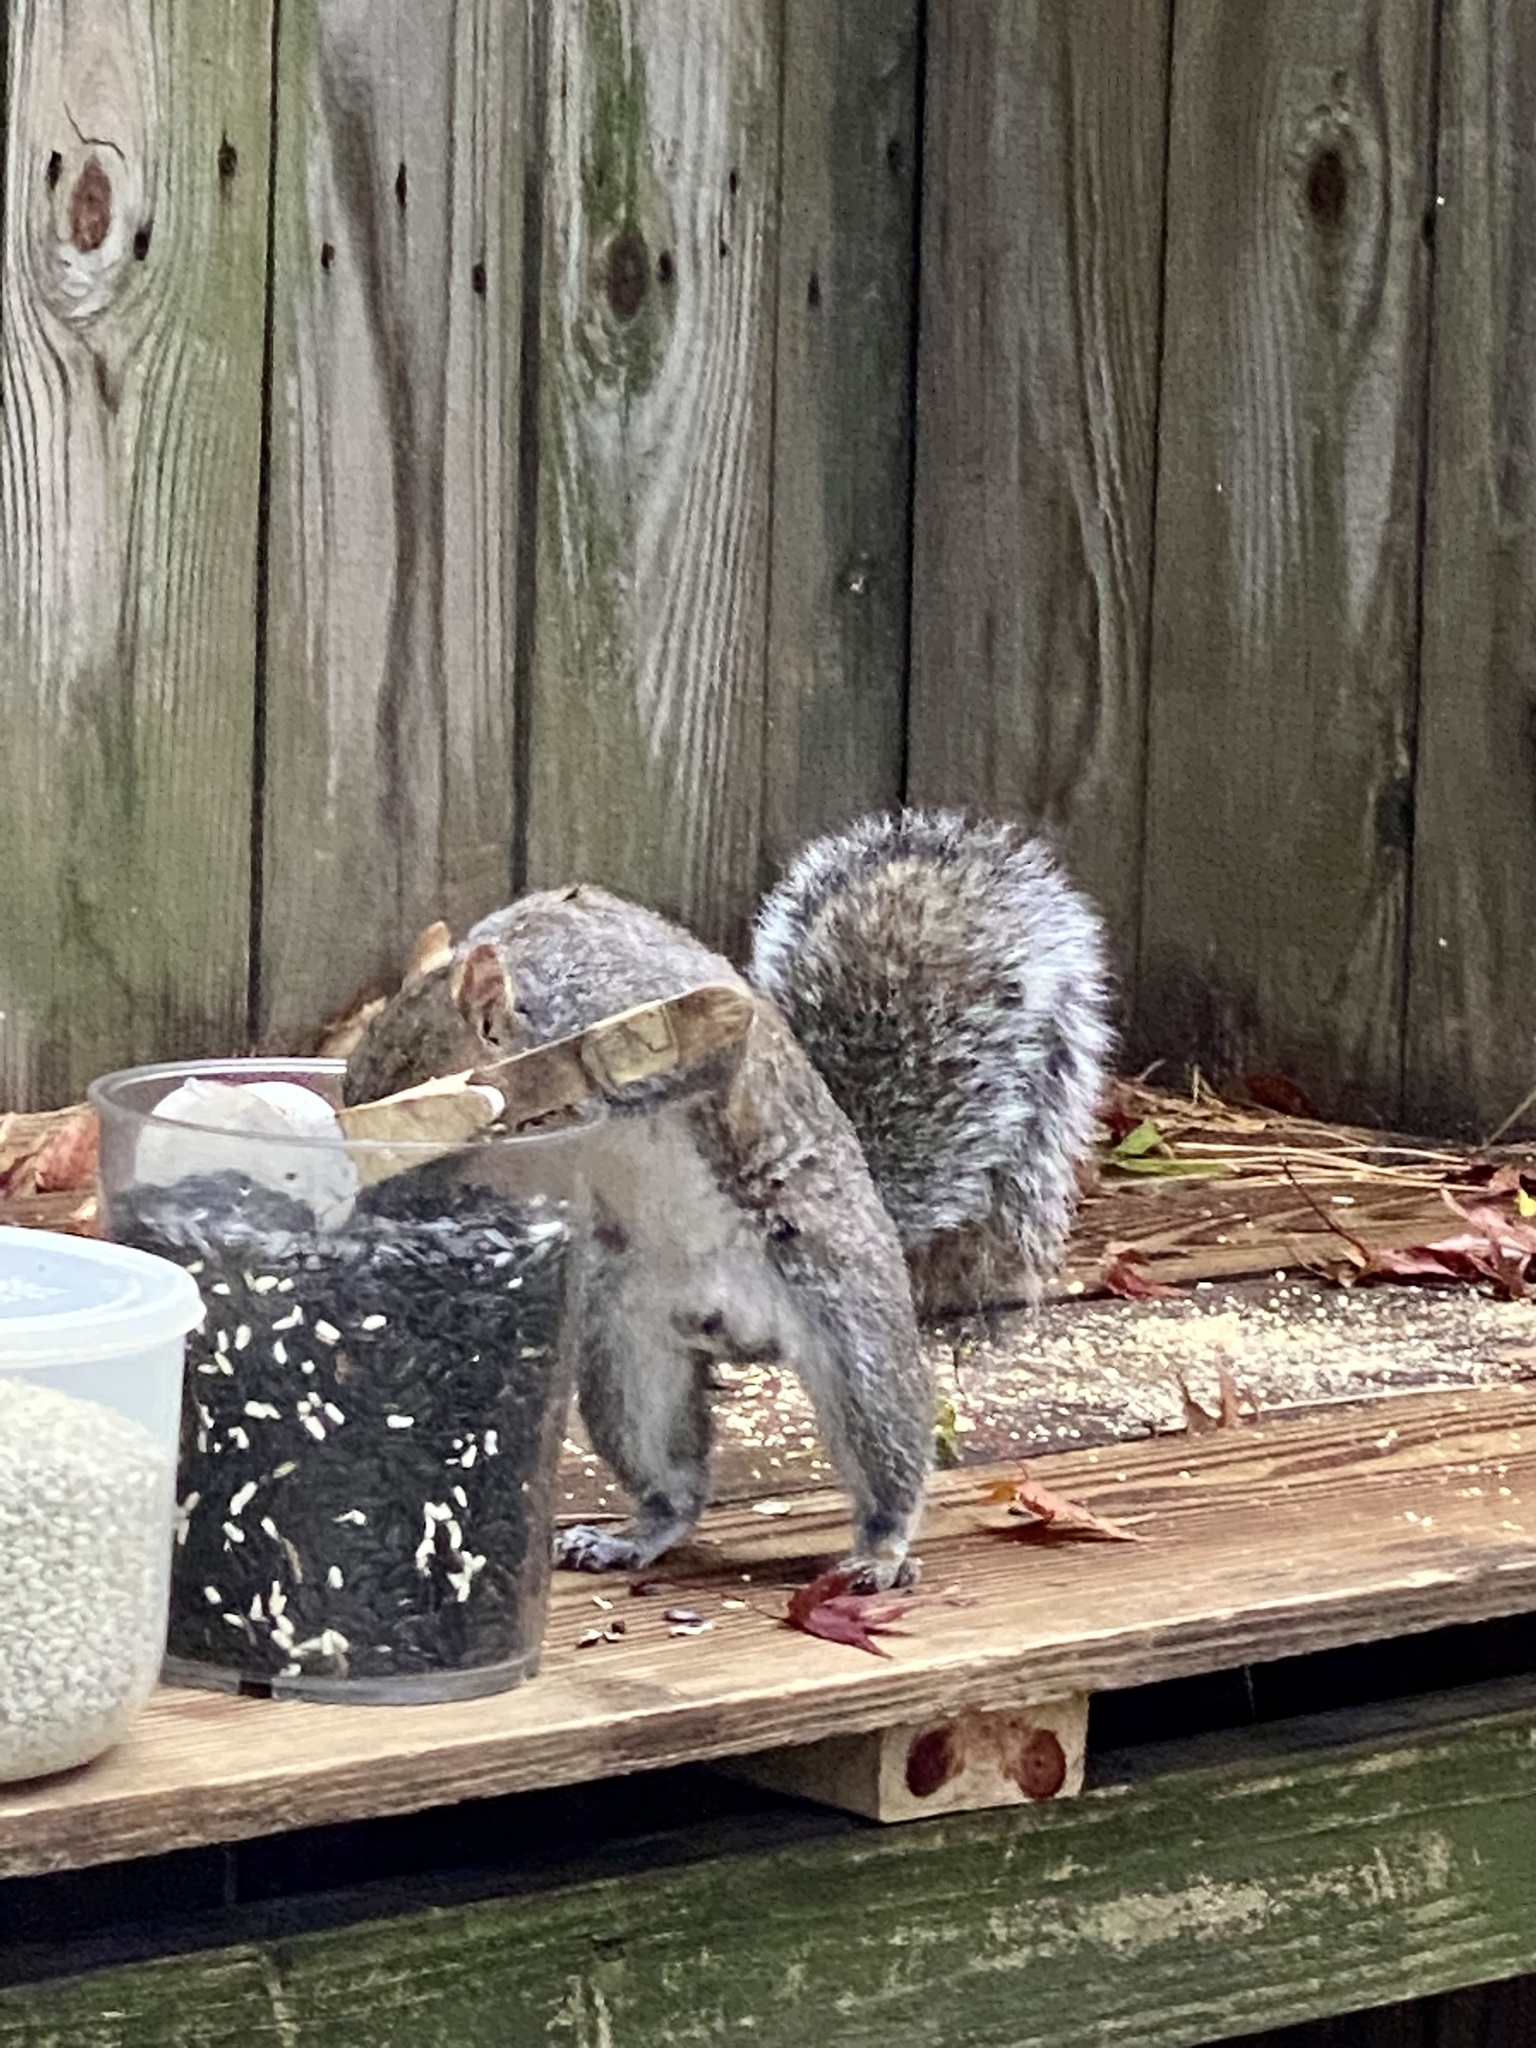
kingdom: Animalia
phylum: Chordata
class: Mammalia
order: Rodentia
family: Sciuridae
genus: Sciurus
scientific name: Sciurus carolinensis
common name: Eastern gray squirrel
